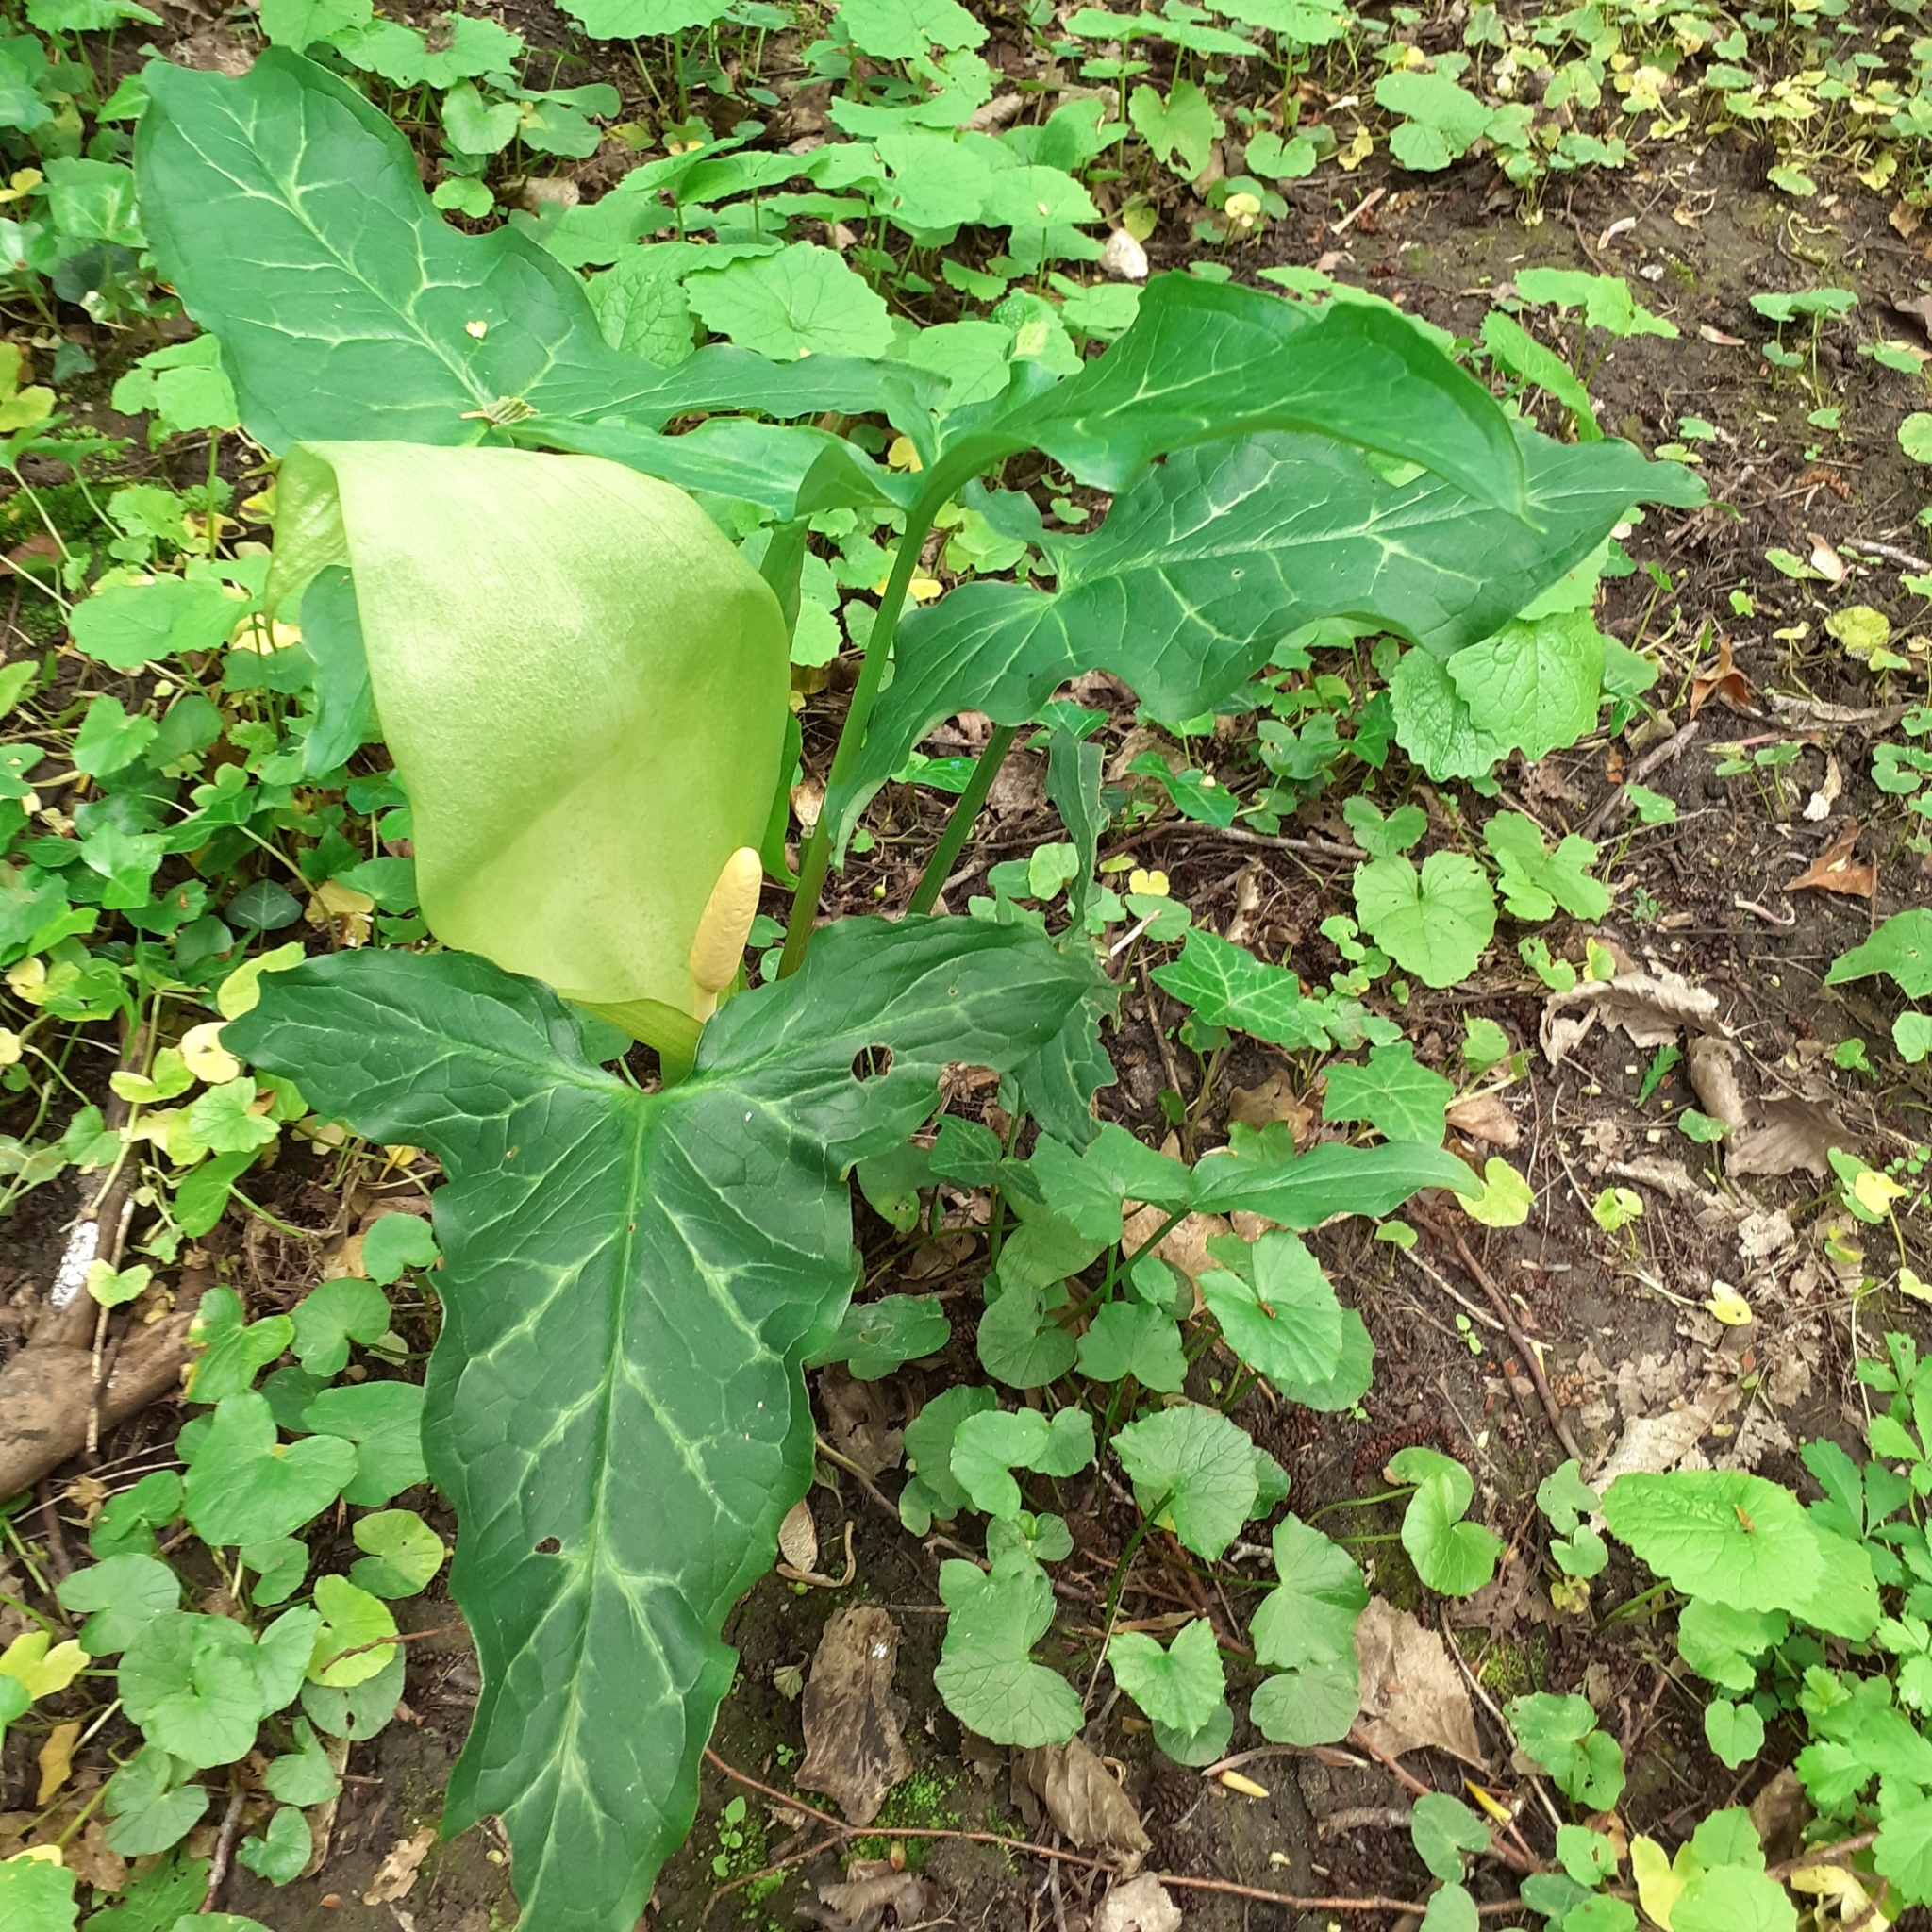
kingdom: Plantae
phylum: Tracheophyta
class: Liliopsida
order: Alismatales
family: Araceae
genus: Arum
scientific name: Arum italicum
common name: Italian lords-and-ladies
